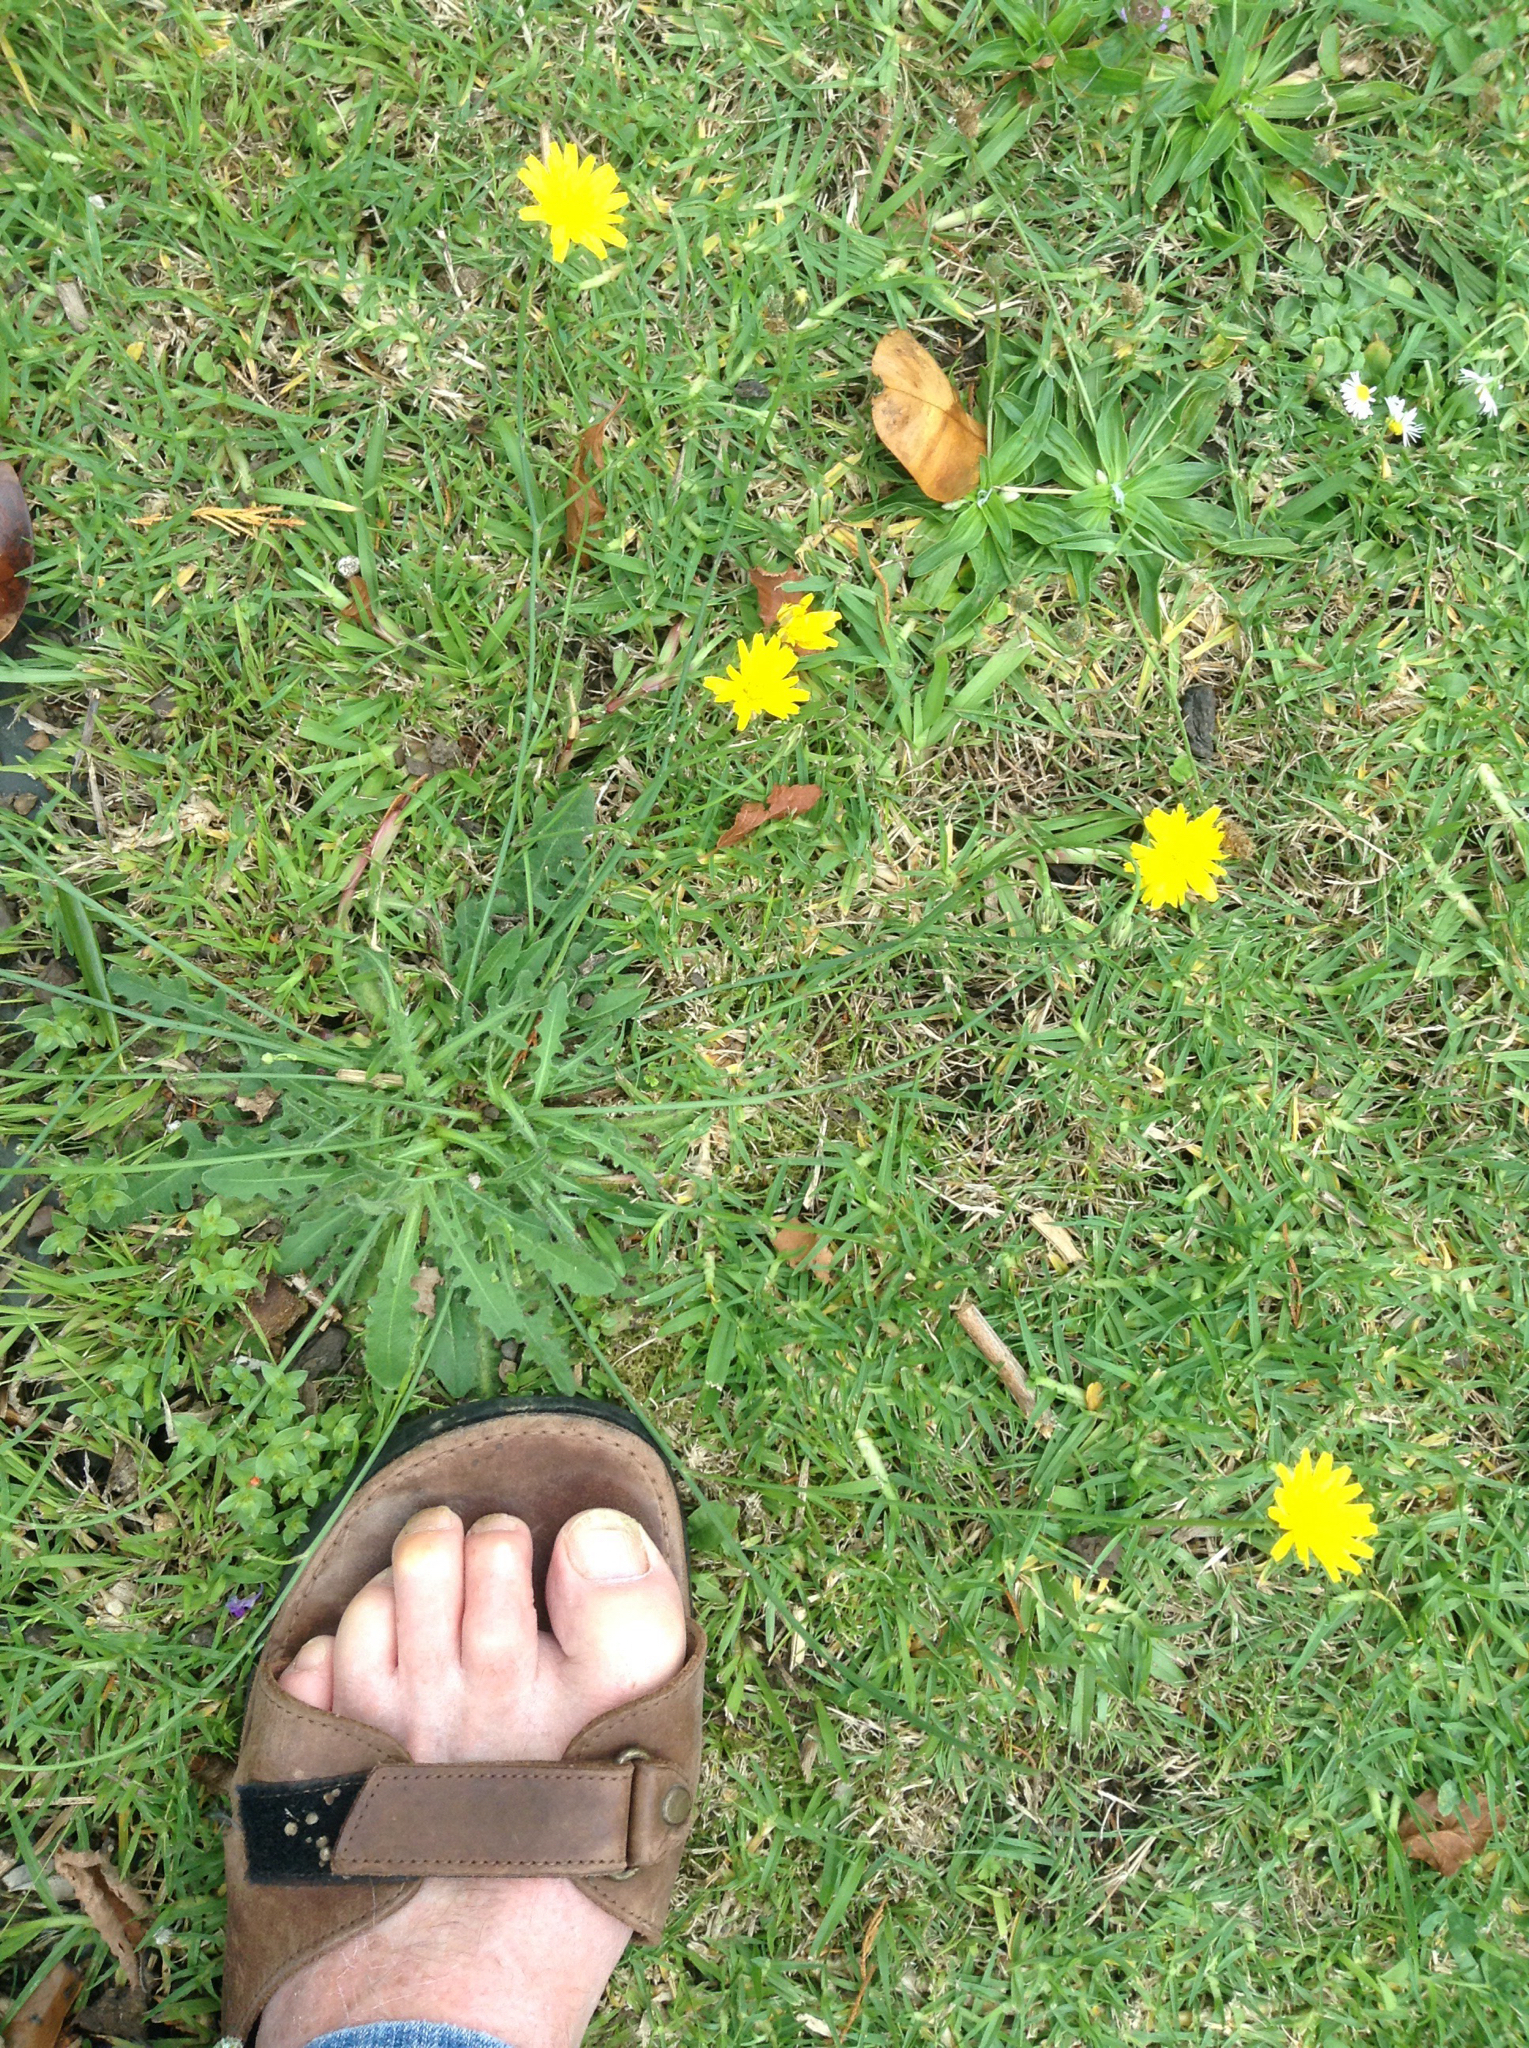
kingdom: Plantae
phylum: Tracheophyta
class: Magnoliopsida
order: Asterales
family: Asteraceae
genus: Hypochaeris
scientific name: Hypochaeris radicata
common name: Flatweed
